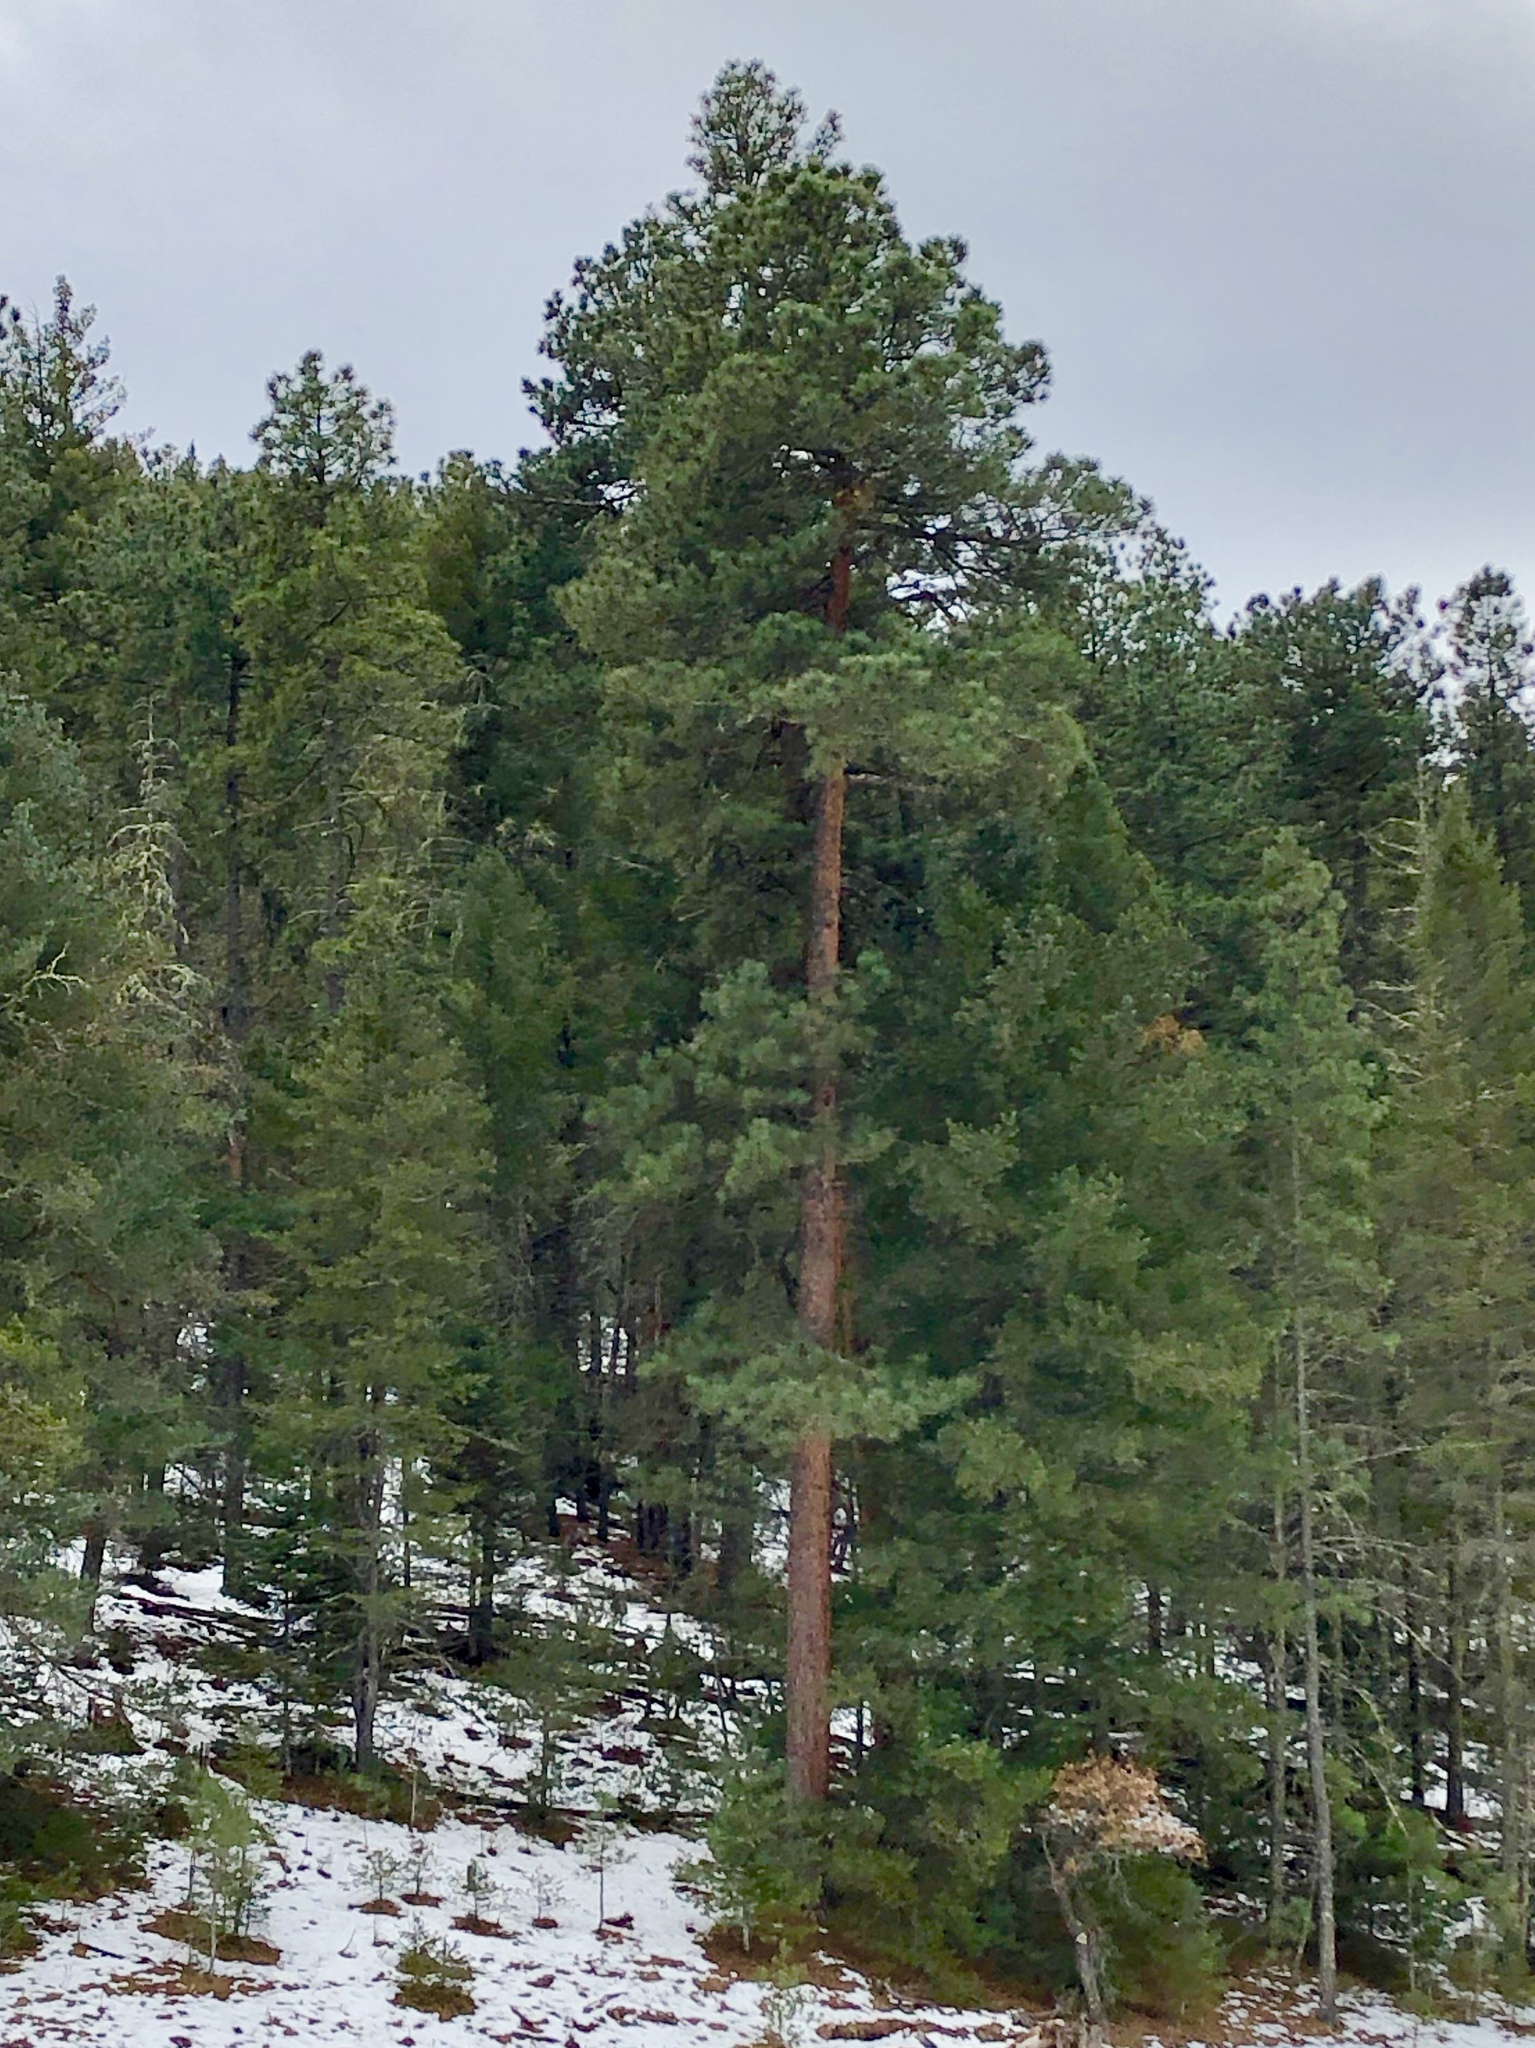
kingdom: Plantae
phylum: Tracheophyta
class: Pinopsida
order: Pinales
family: Pinaceae
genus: Pinus
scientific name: Pinus ponderosa
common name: Western yellow-pine
